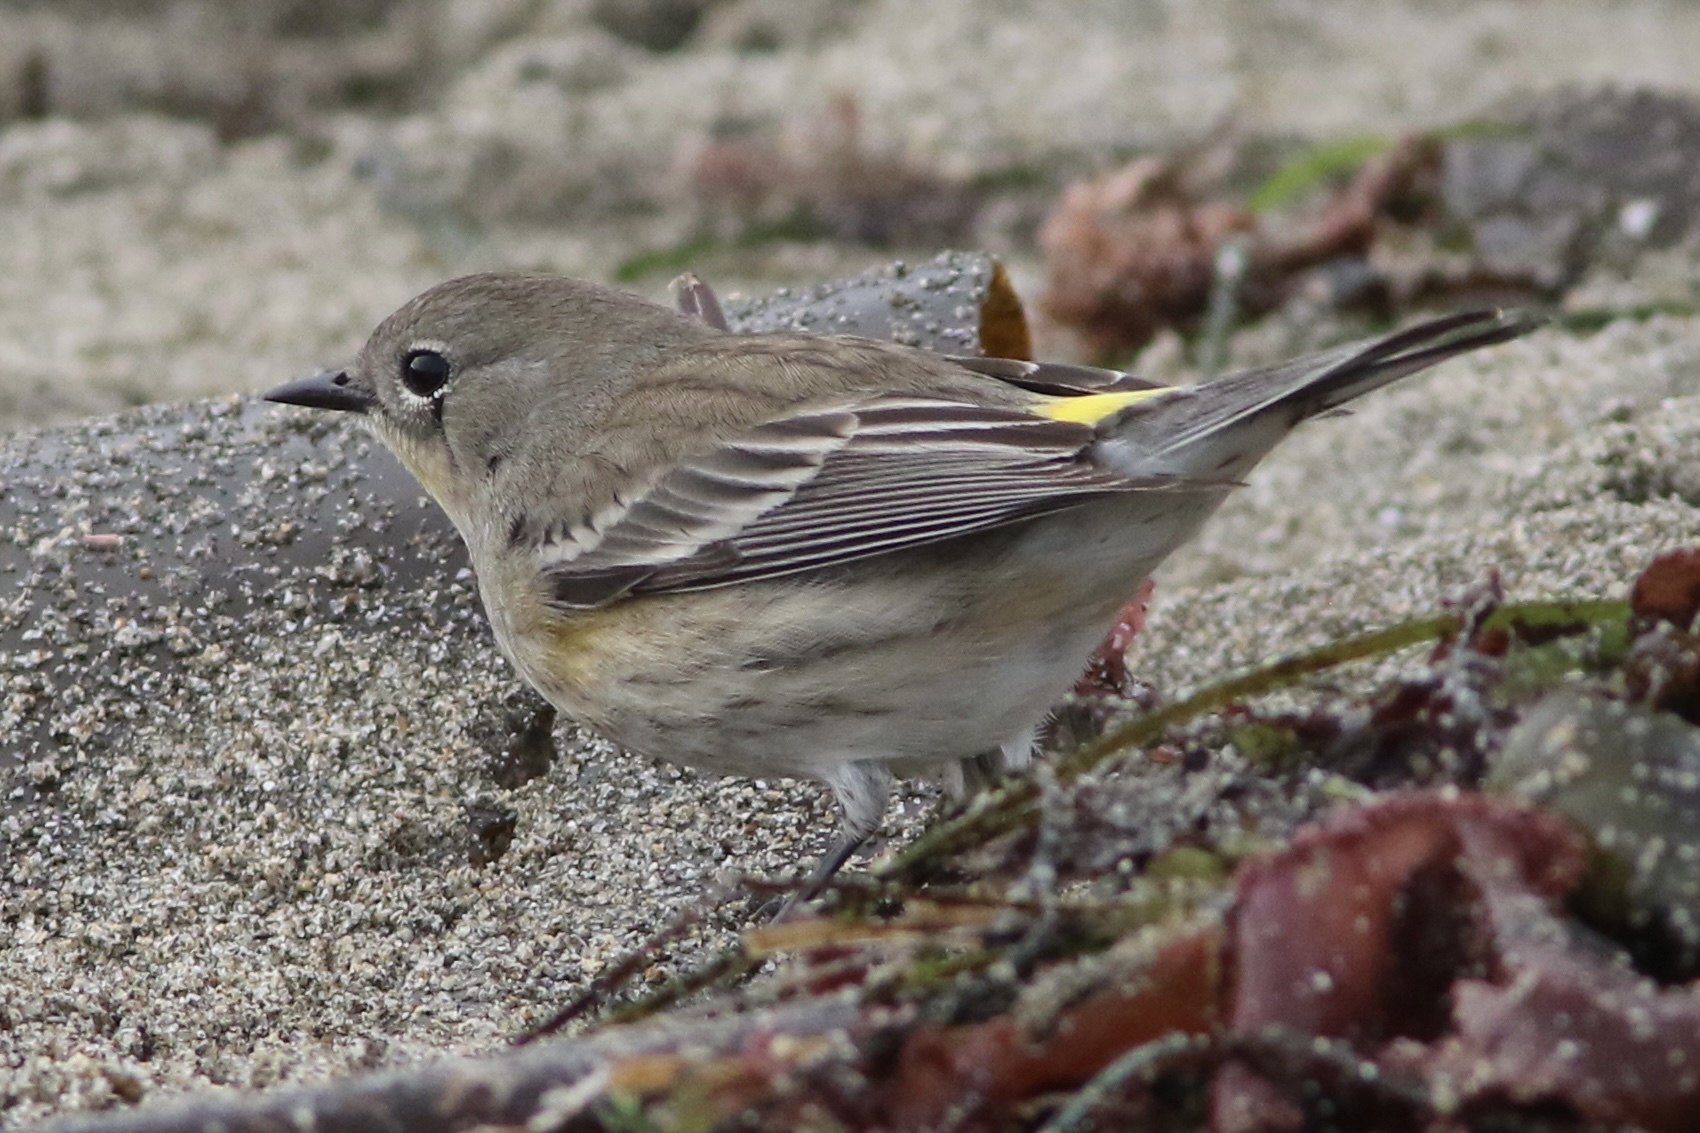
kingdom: Animalia
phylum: Chordata
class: Aves
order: Passeriformes
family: Parulidae
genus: Setophaga
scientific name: Setophaga coronata
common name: Myrtle warbler
